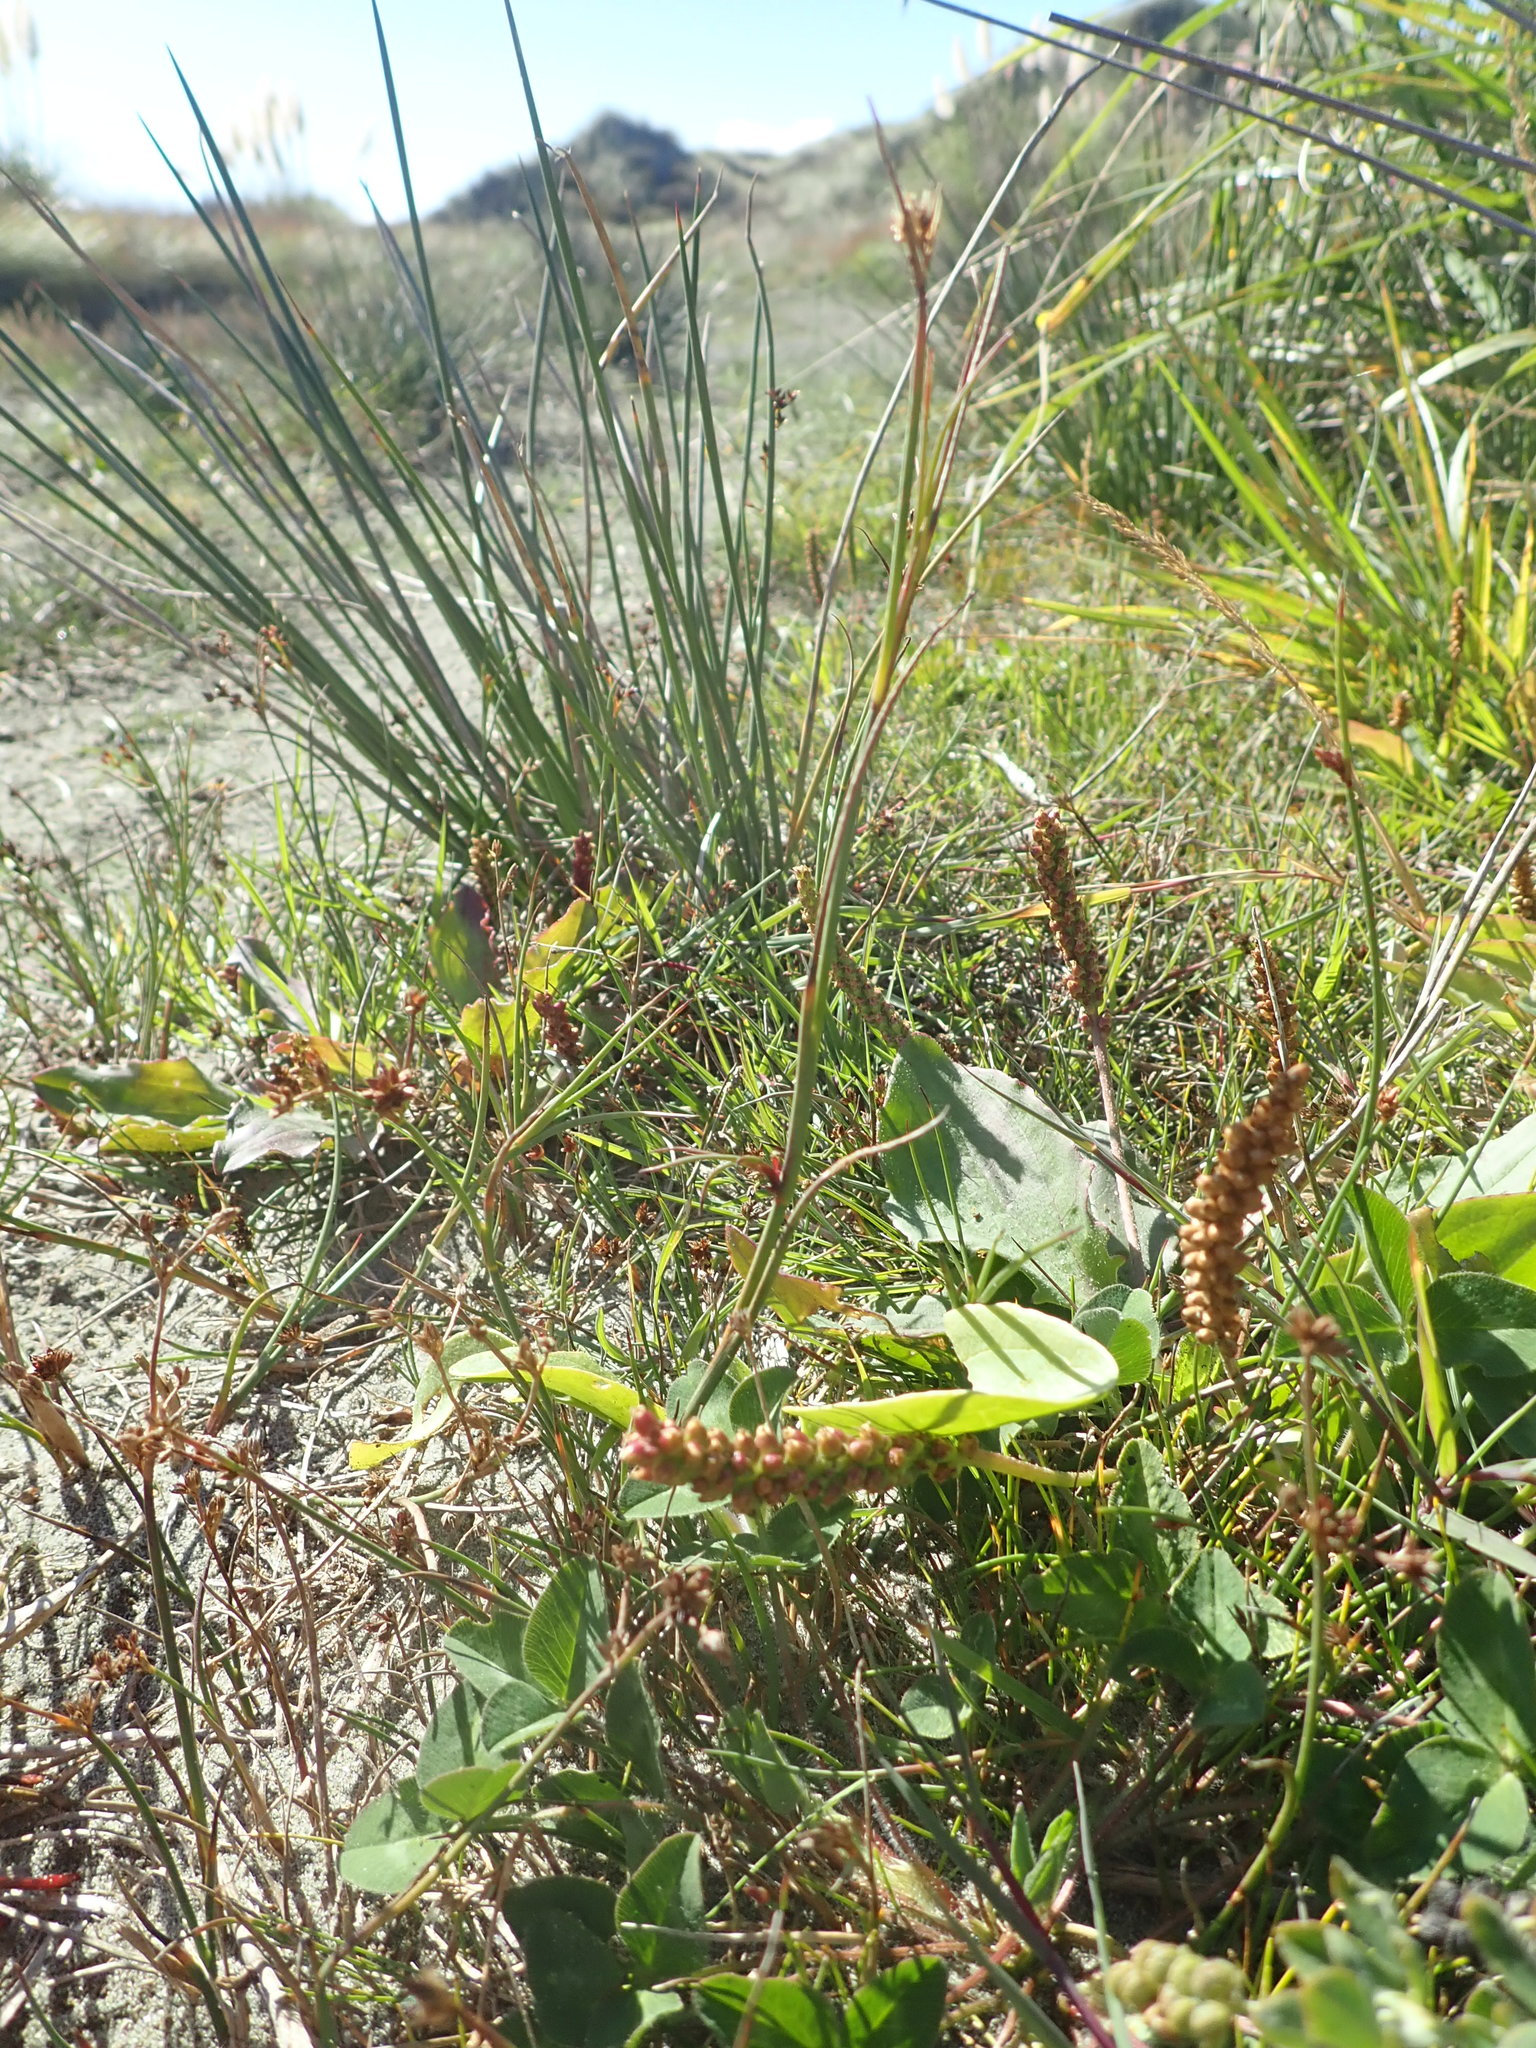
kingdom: Plantae
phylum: Tracheophyta
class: Magnoliopsida
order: Lamiales
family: Plantaginaceae
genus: Plantago
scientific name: Plantago australis
